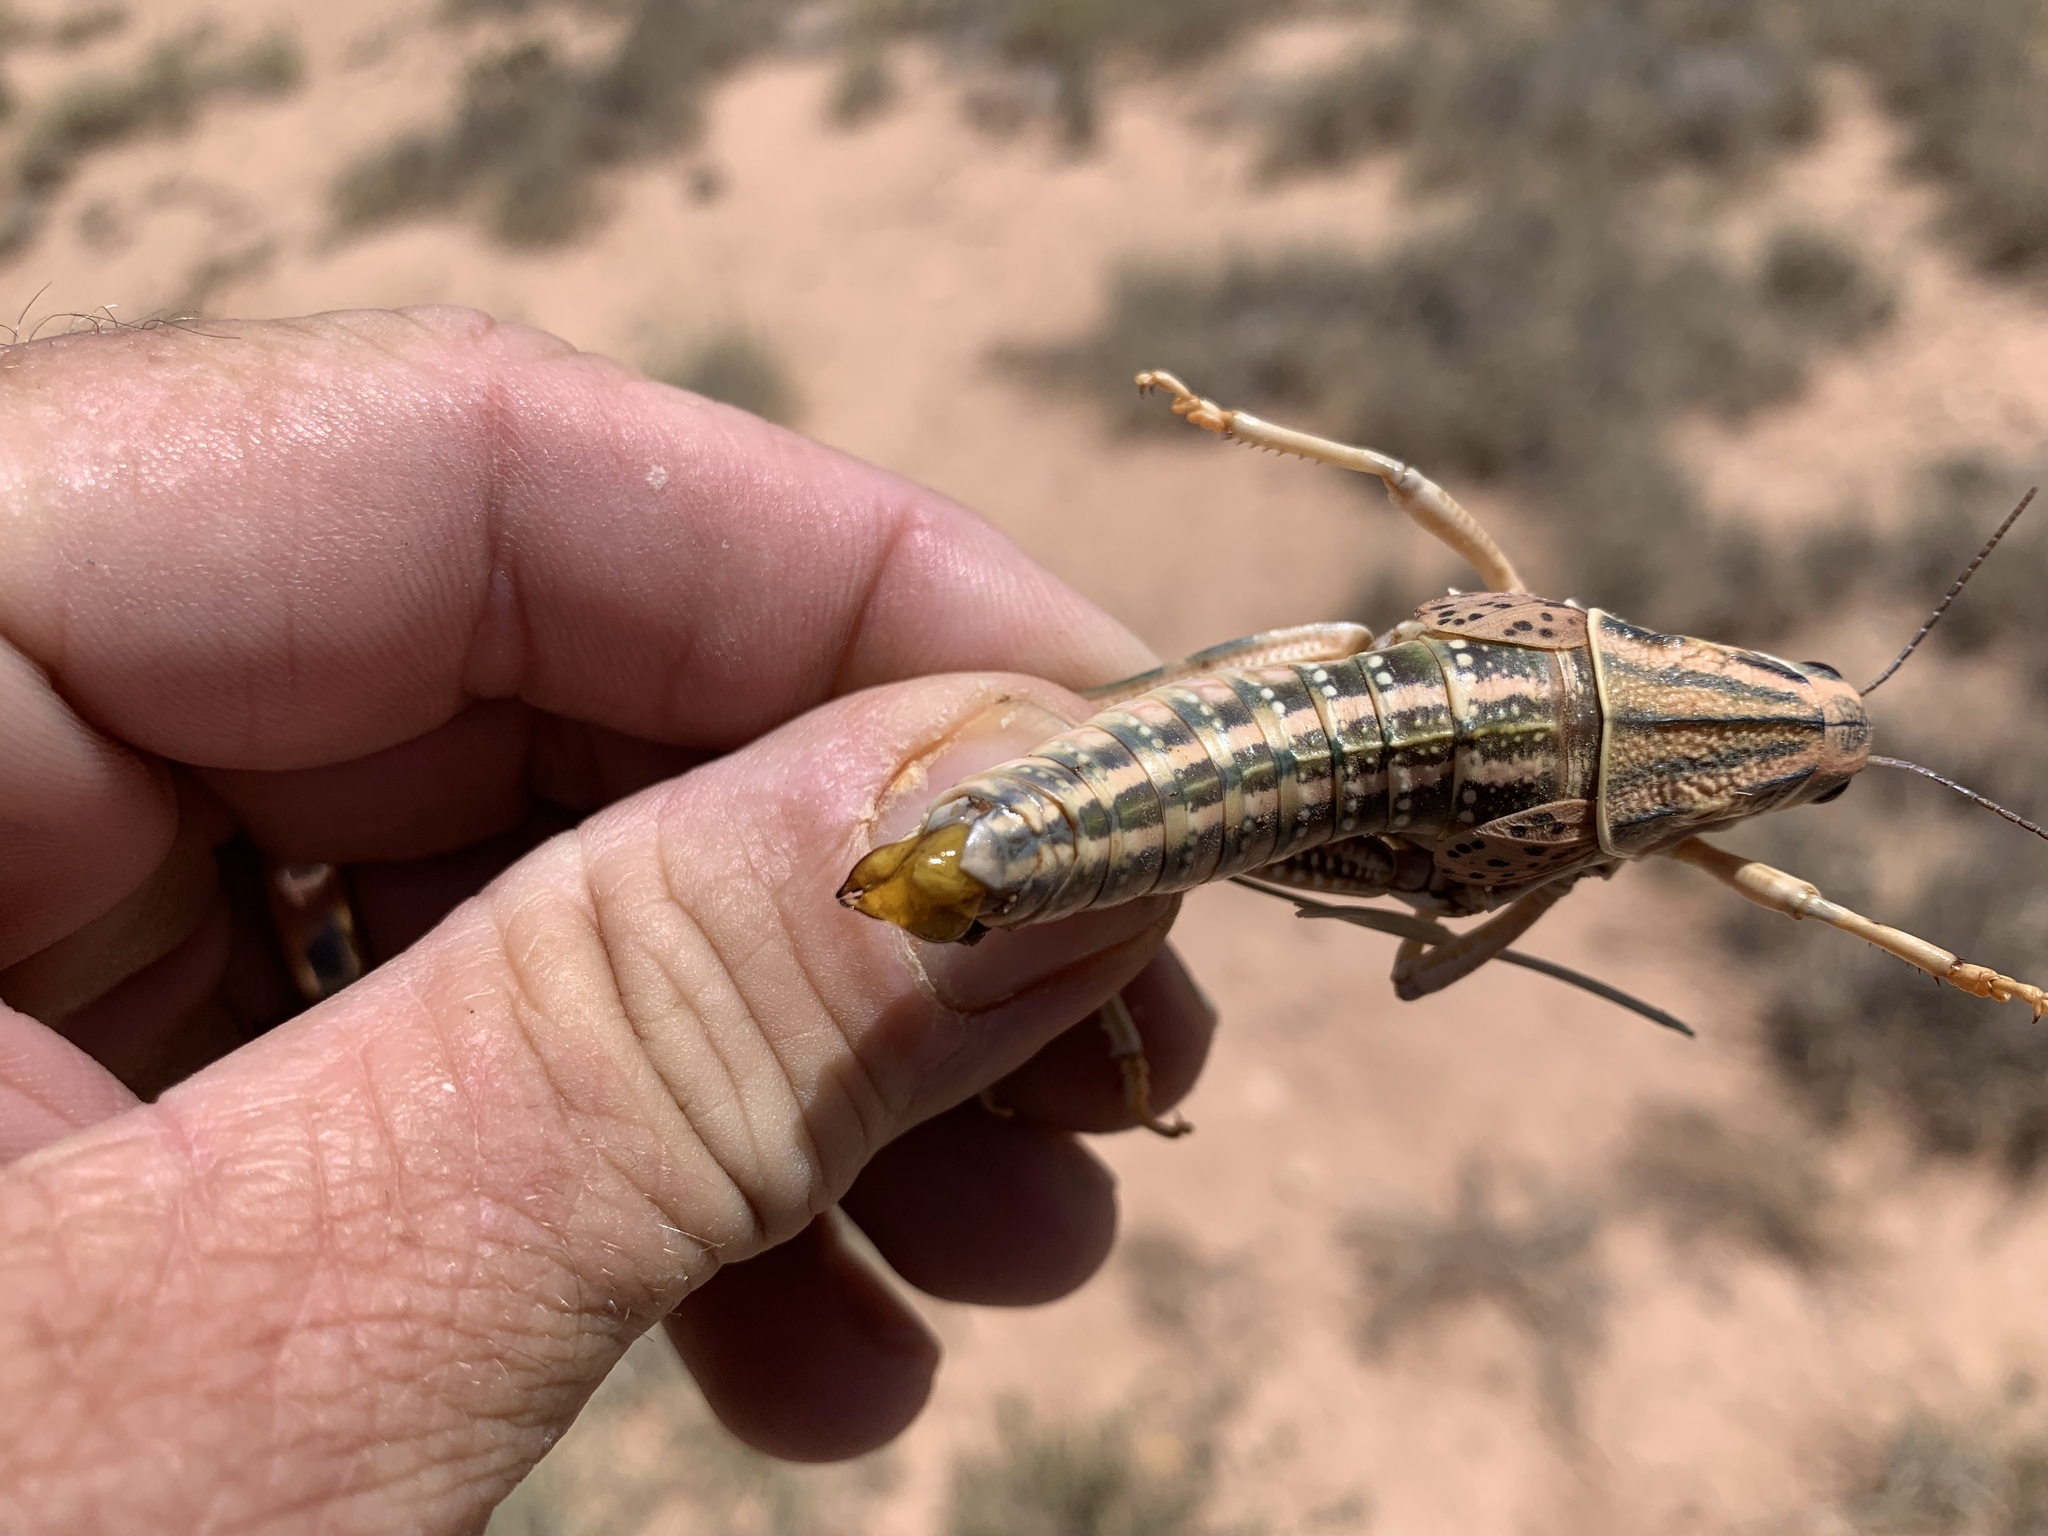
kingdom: Animalia
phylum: Arthropoda
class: Insecta
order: Orthoptera
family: Romaleidae
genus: Brachystola
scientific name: Brachystola magna
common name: Plains lubber grasshopper
